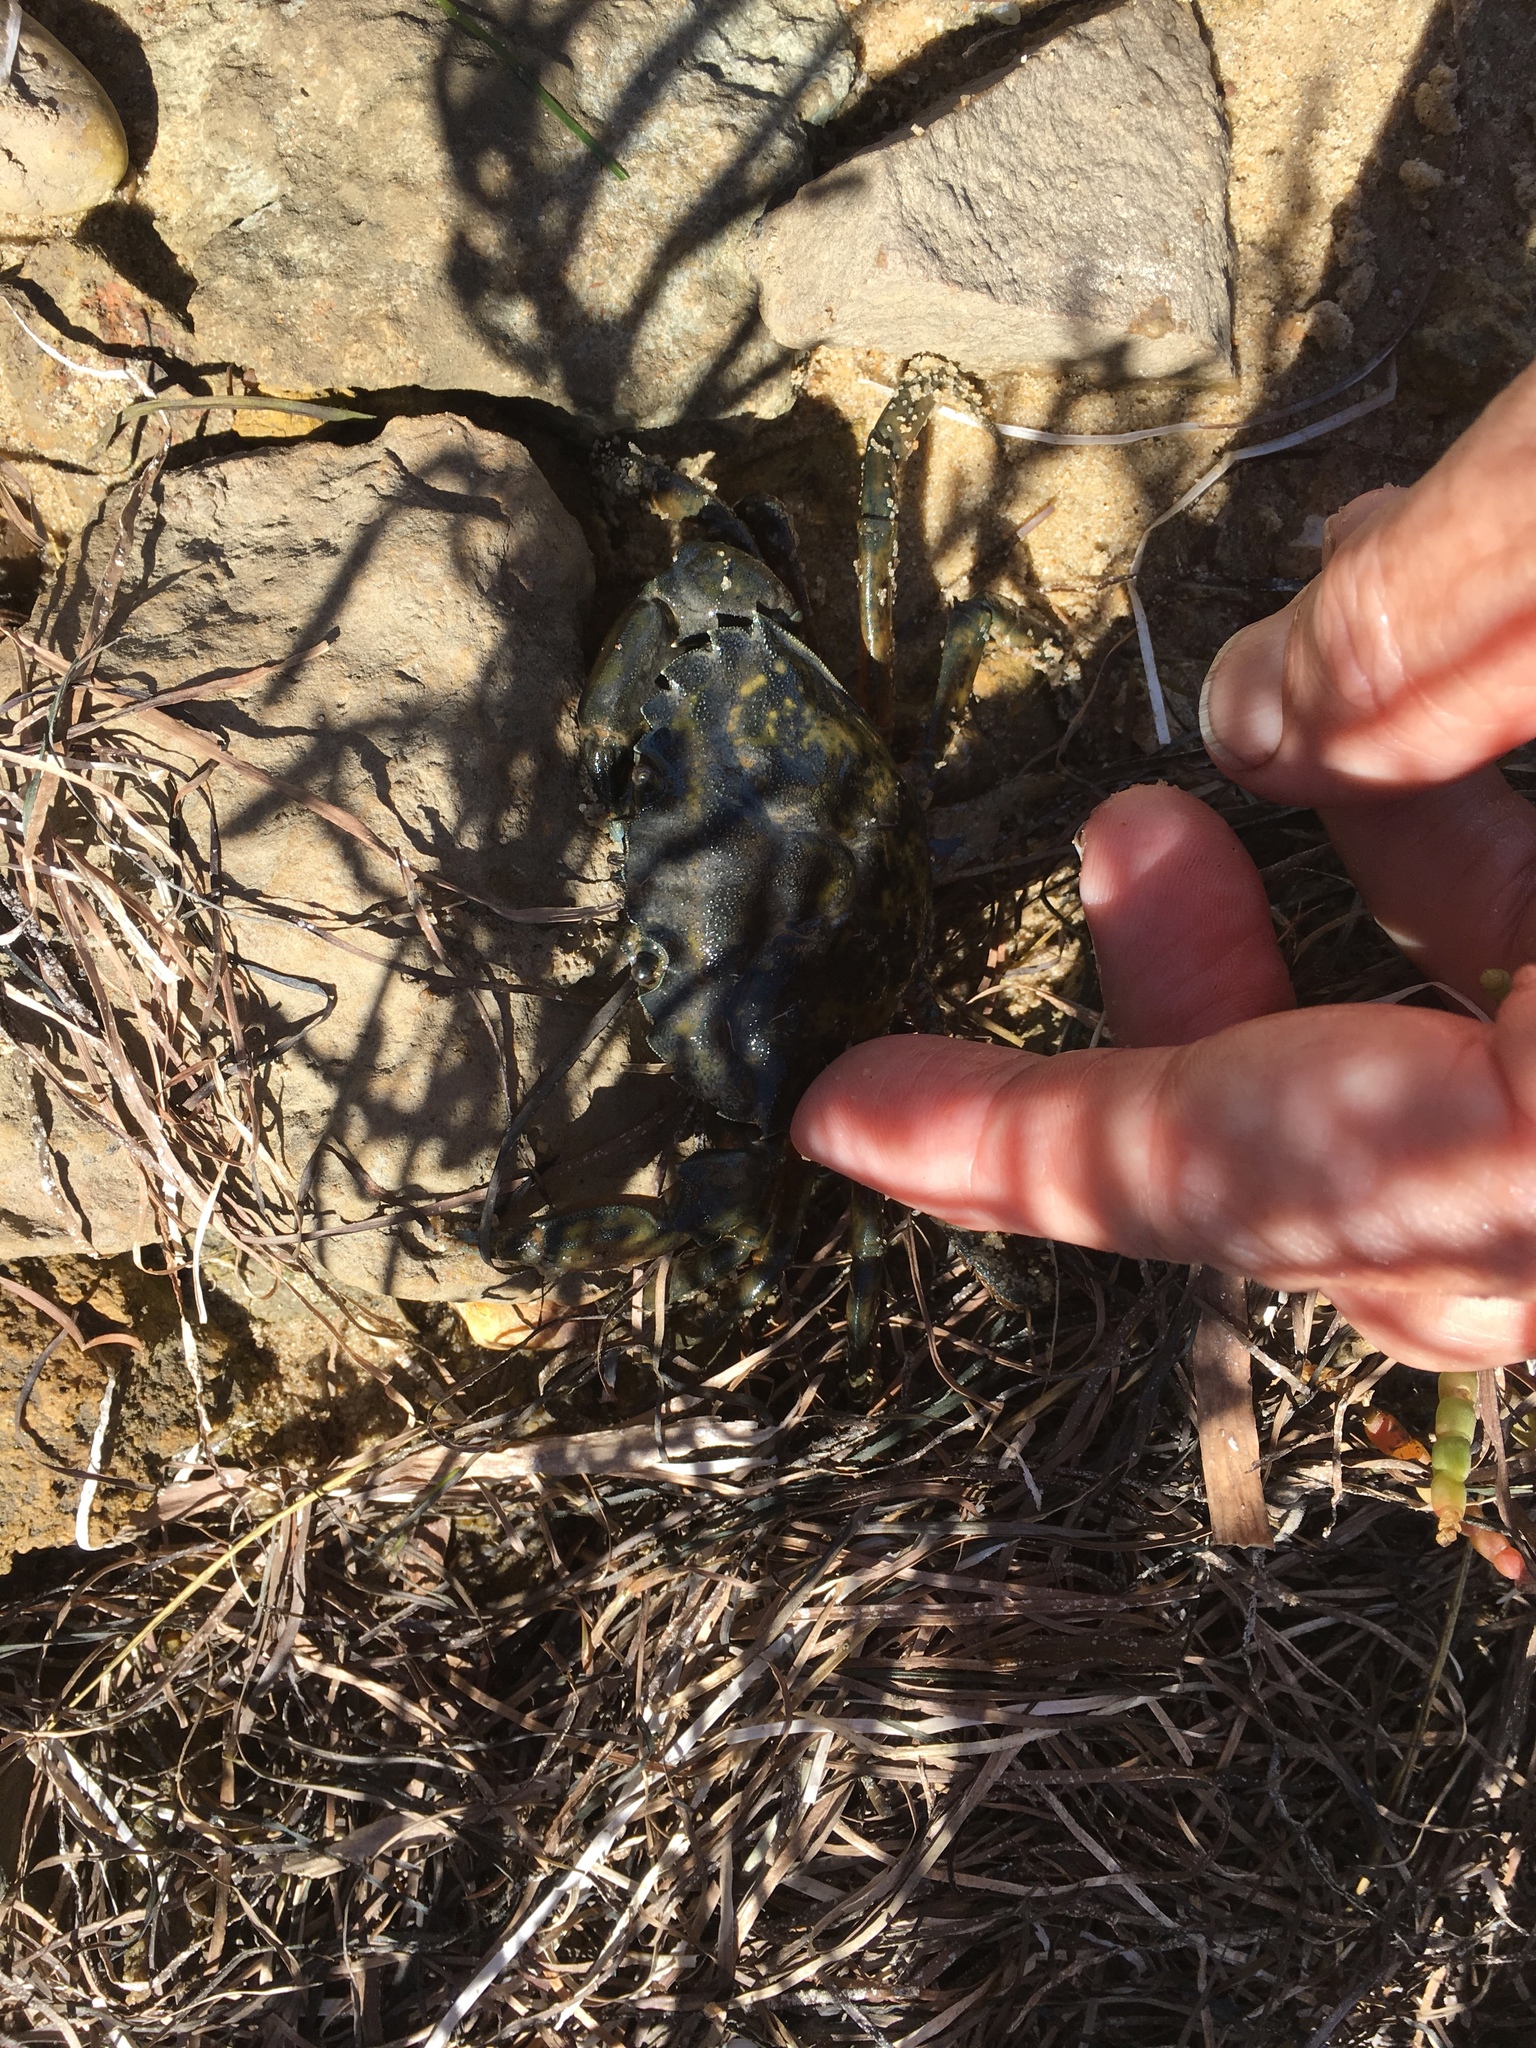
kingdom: Animalia
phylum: Arthropoda
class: Malacostraca
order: Decapoda
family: Carcinidae
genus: Carcinus
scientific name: Carcinus maenas
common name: European green crab
